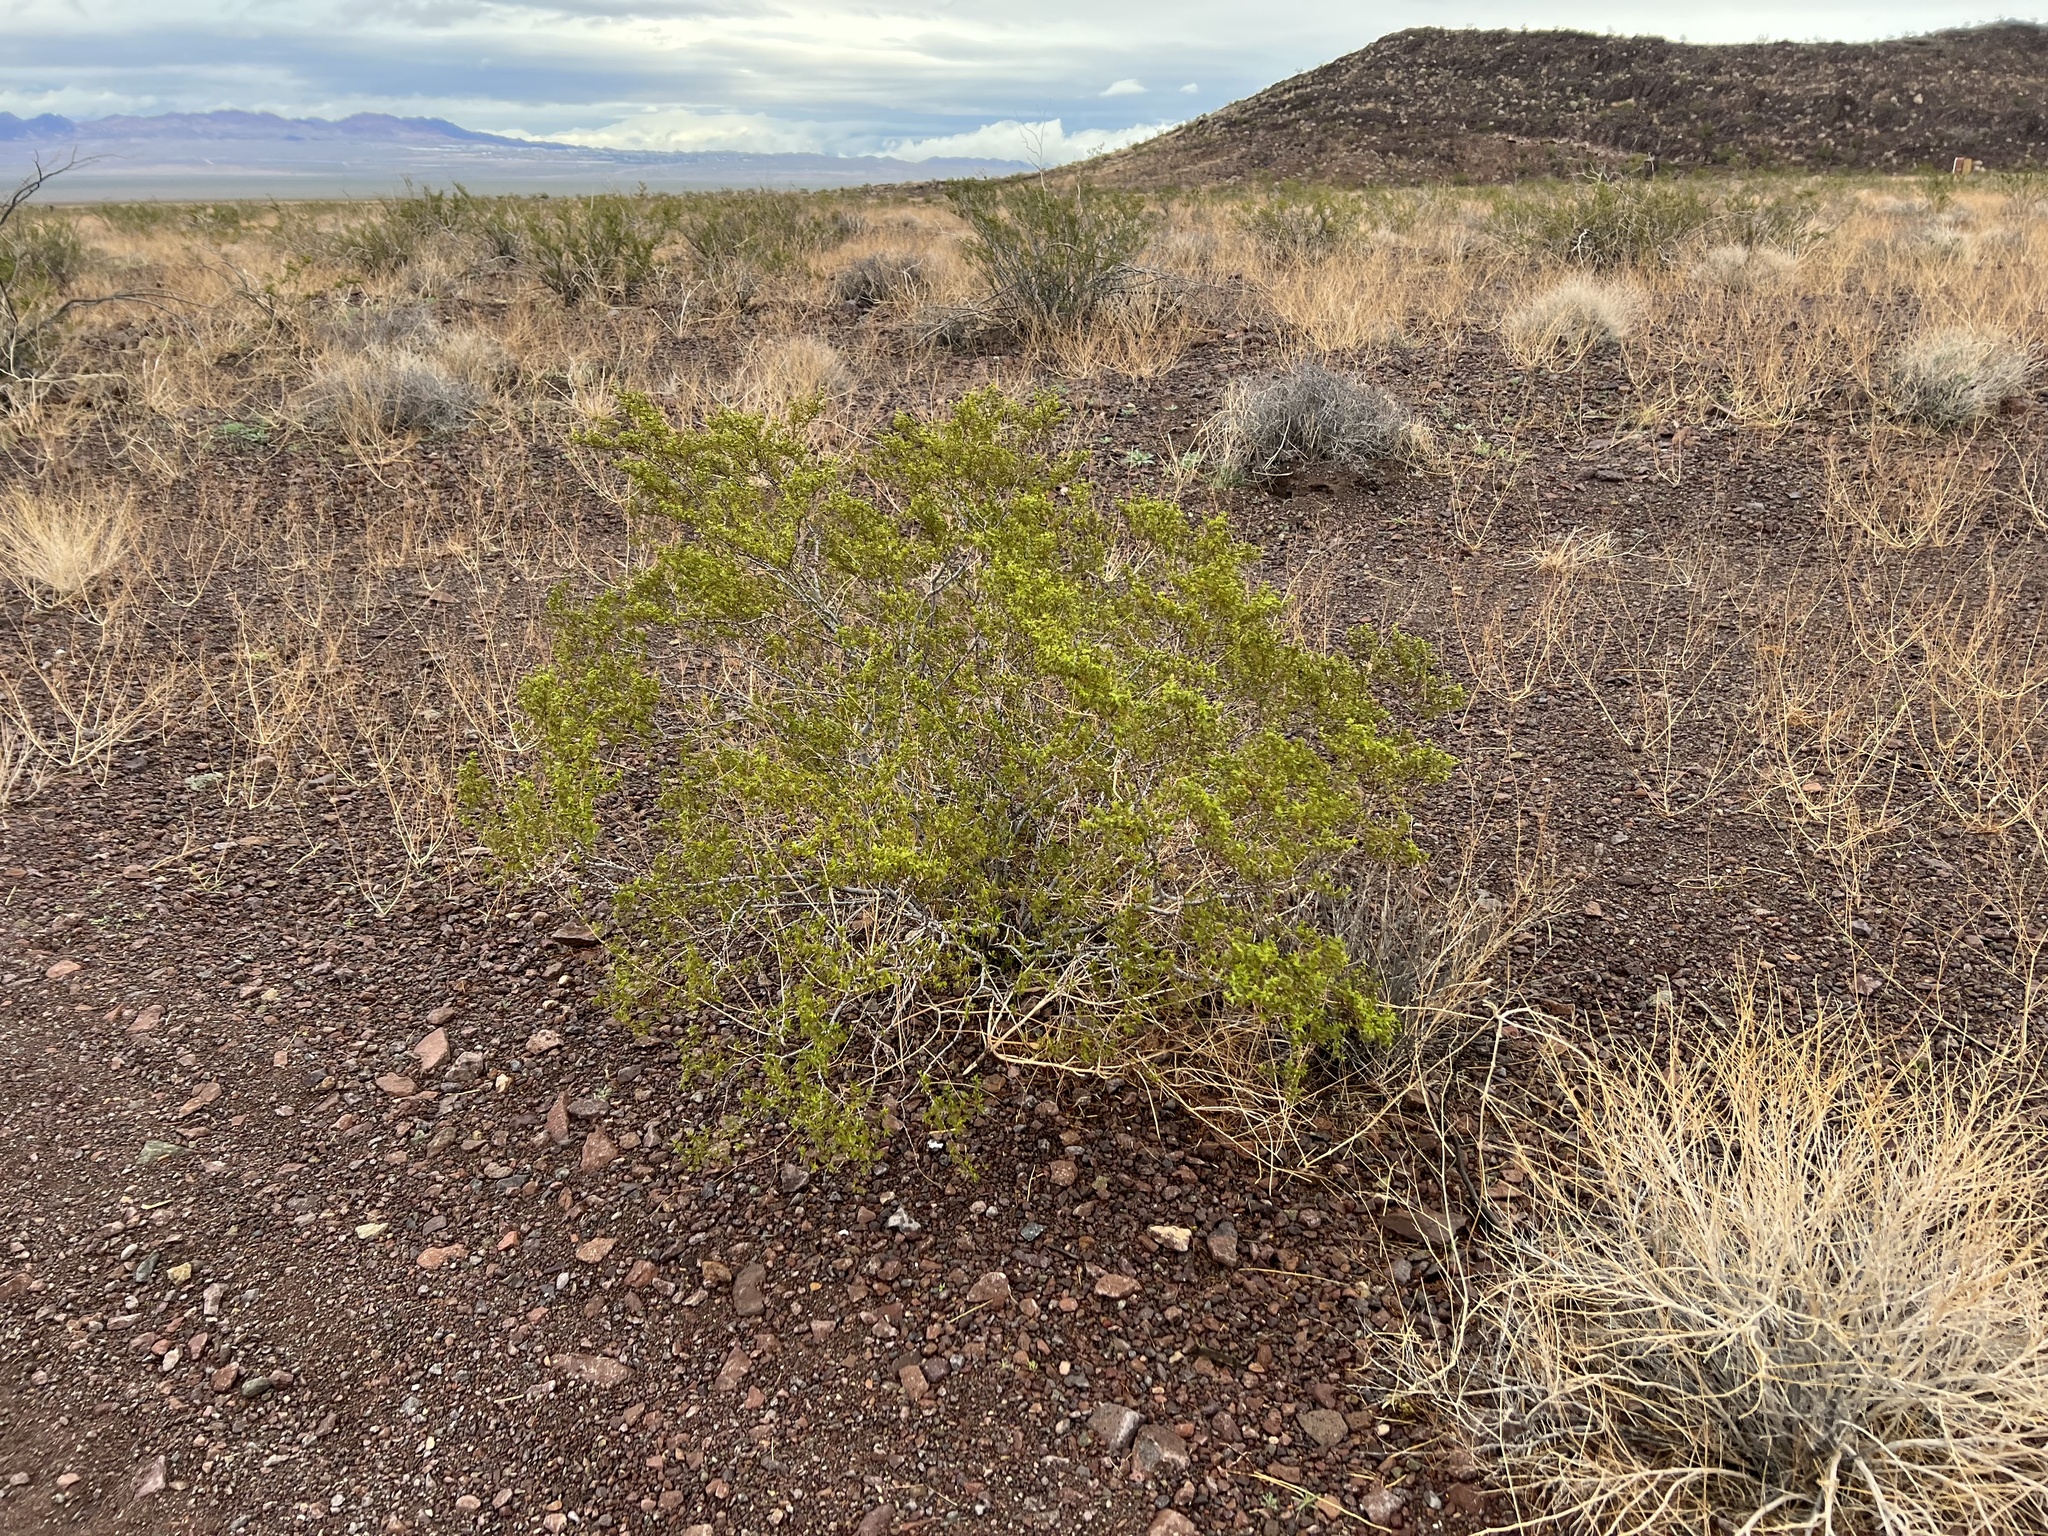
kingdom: Plantae
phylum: Tracheophyta
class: Magnoliopsida
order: Zygophyllales
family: Zygophyllaceae
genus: Larrea
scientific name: Larrea tridentata
